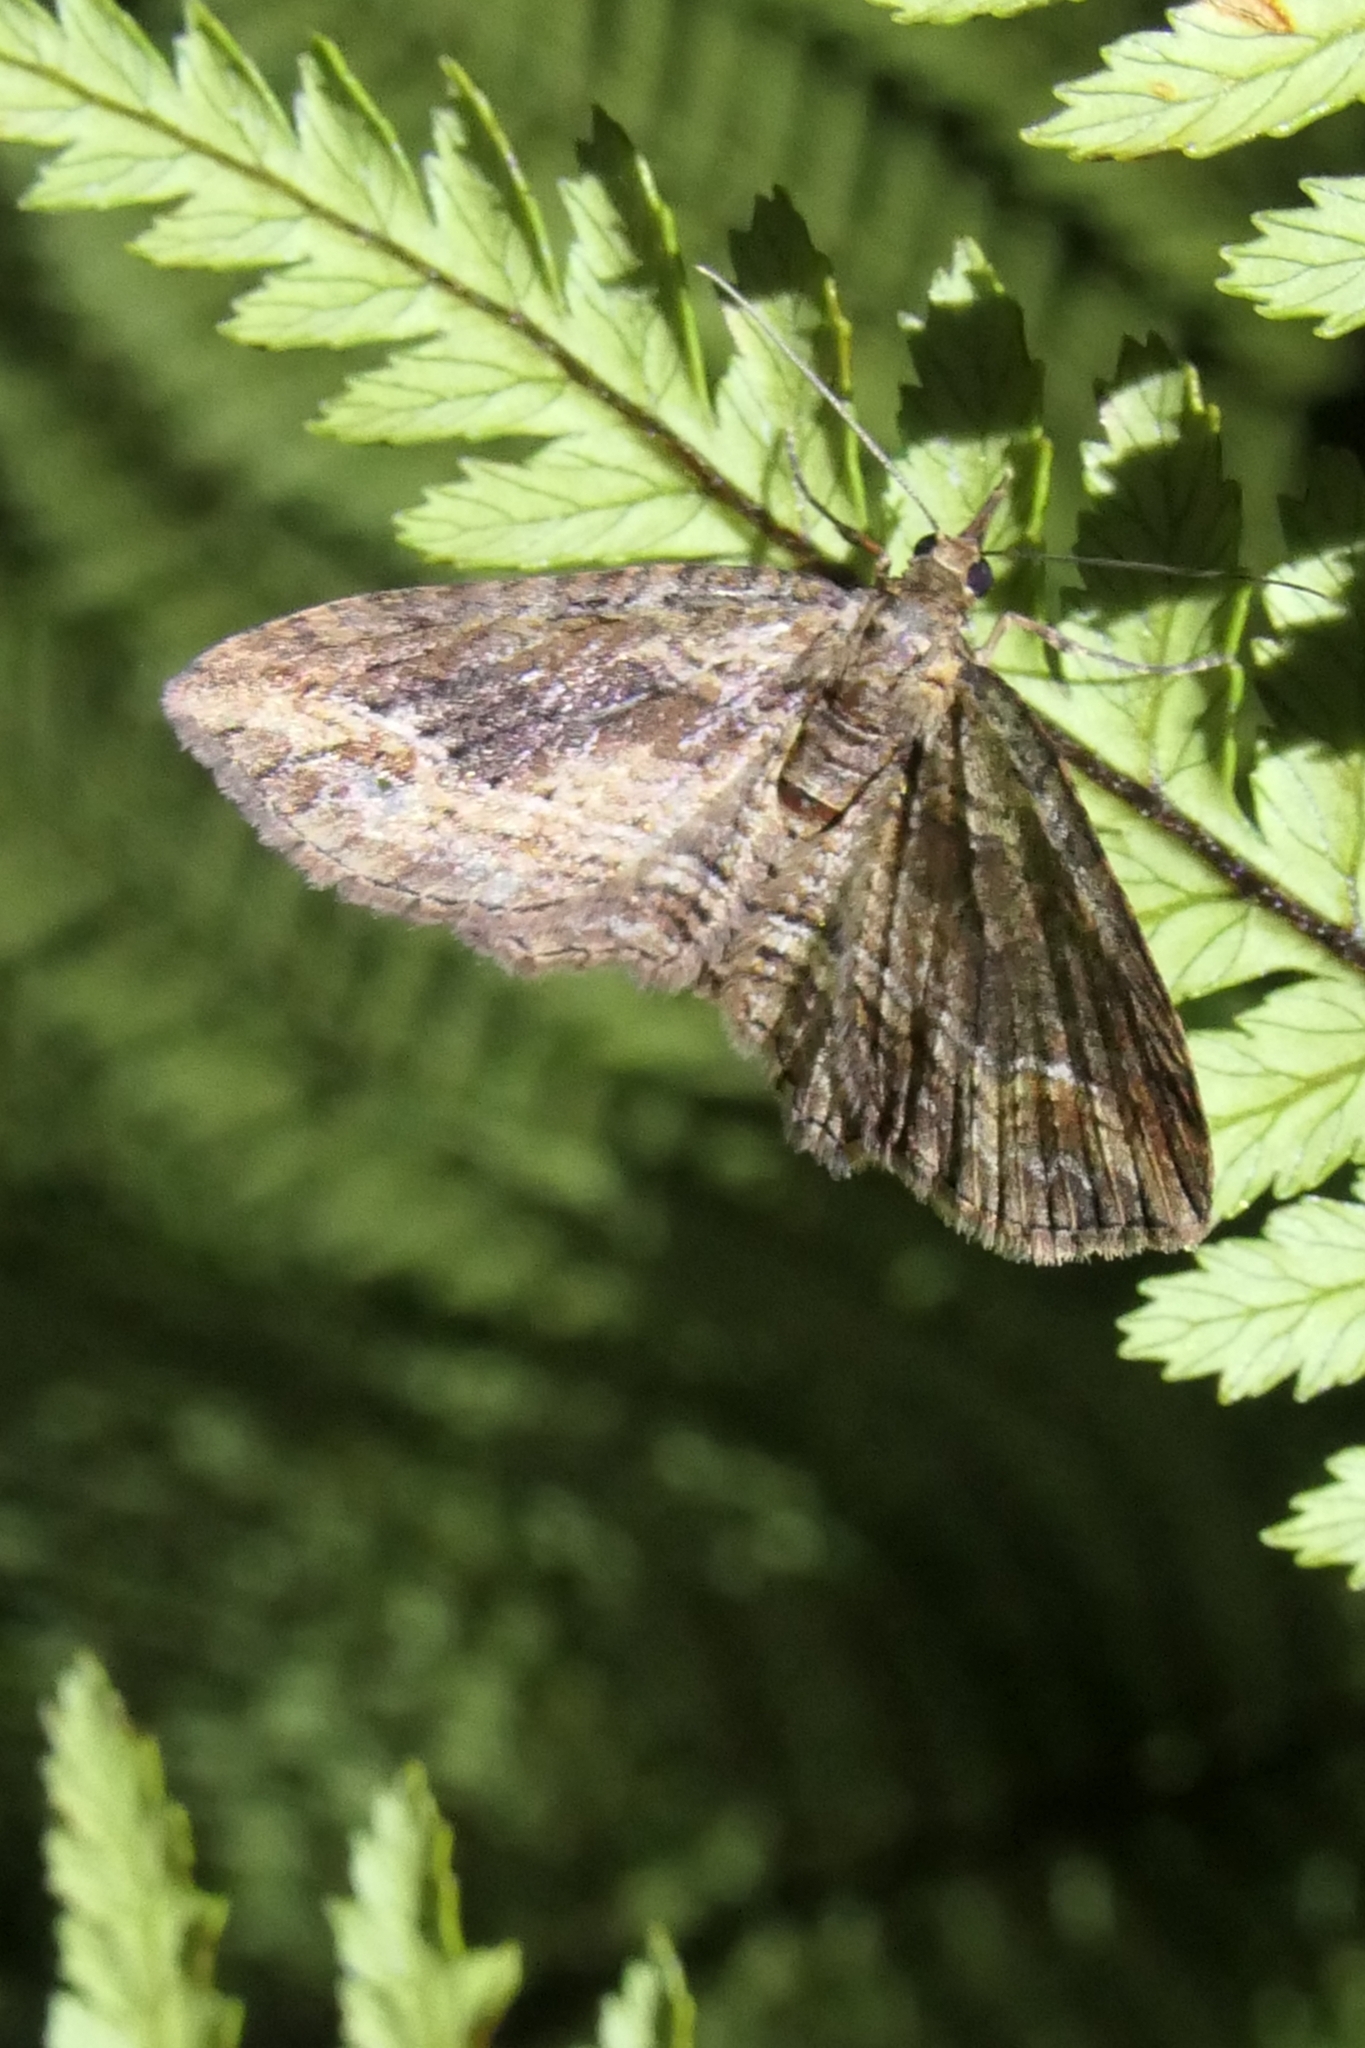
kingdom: Animalia
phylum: Arthropoda
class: Insecta
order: Lepidoptera
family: Geometridae
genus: Chloroclystis
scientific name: Chloroclystis filata
